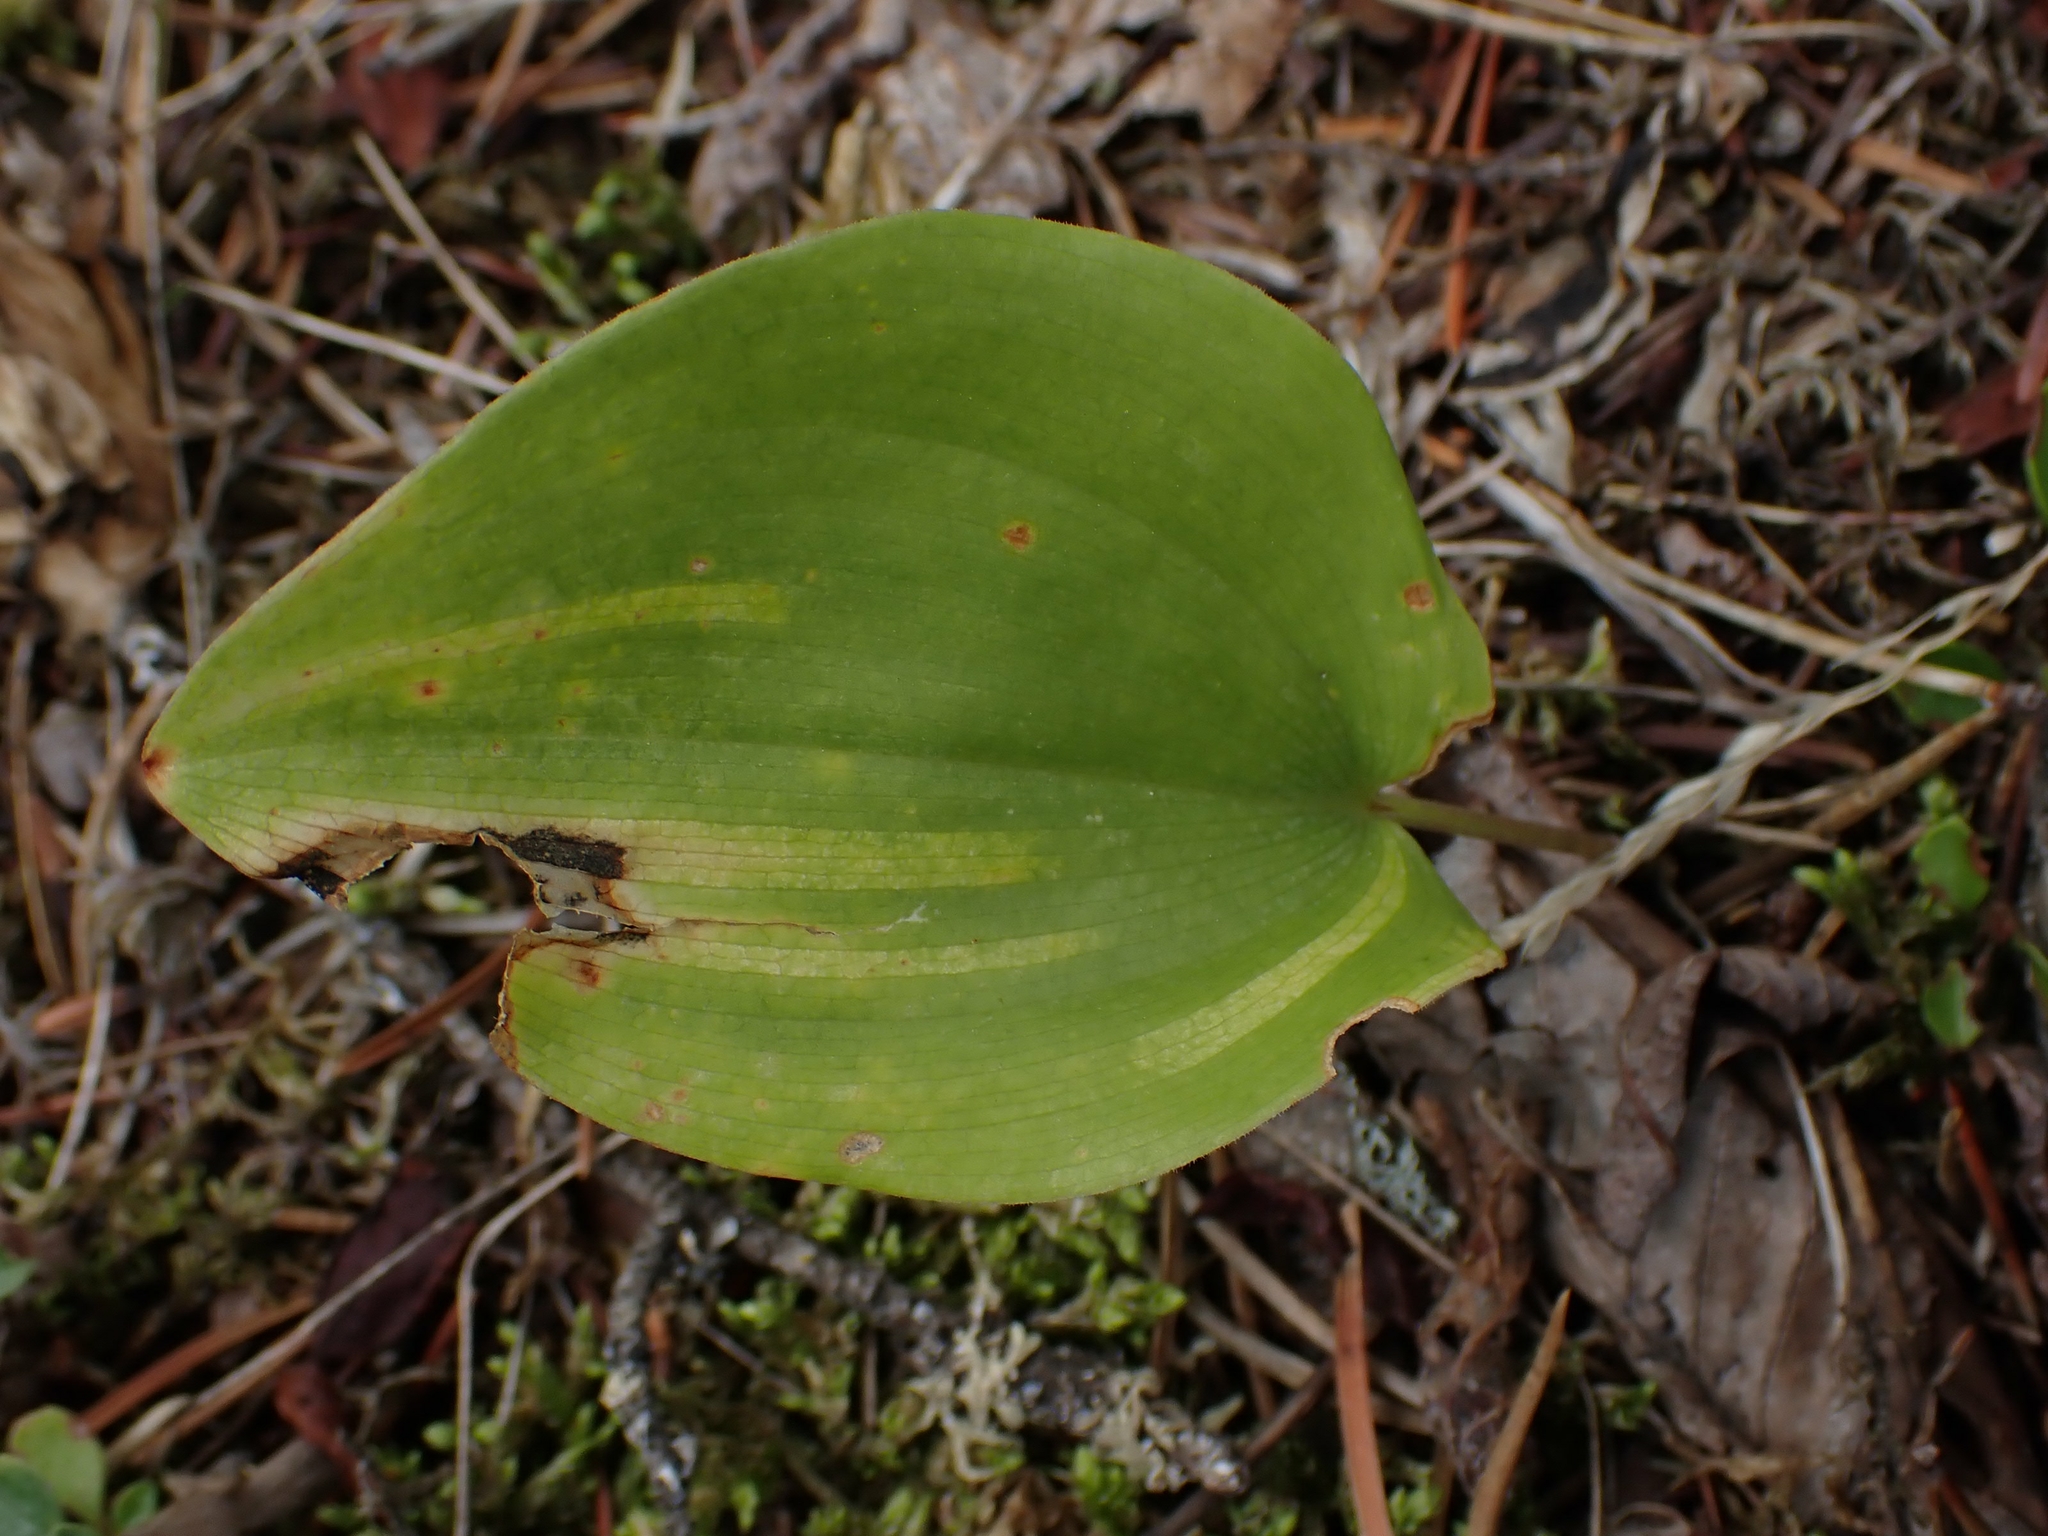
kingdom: Plantae
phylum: Tracheophyta
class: Liliopsida
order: Asparagales
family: Asparagaceae
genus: Maianthemum
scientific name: Maianthemum canadense
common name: False lily-of-the-valley
